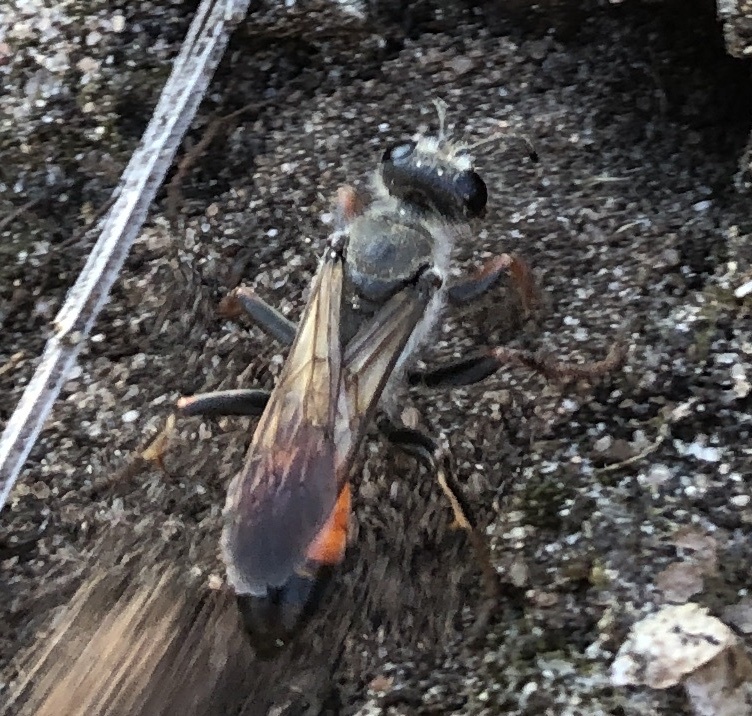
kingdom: Animalia
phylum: Arthropoda
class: Insecta
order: Hymenoptera
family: Sphecidae
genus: Sphex
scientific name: Sphex funerarius
